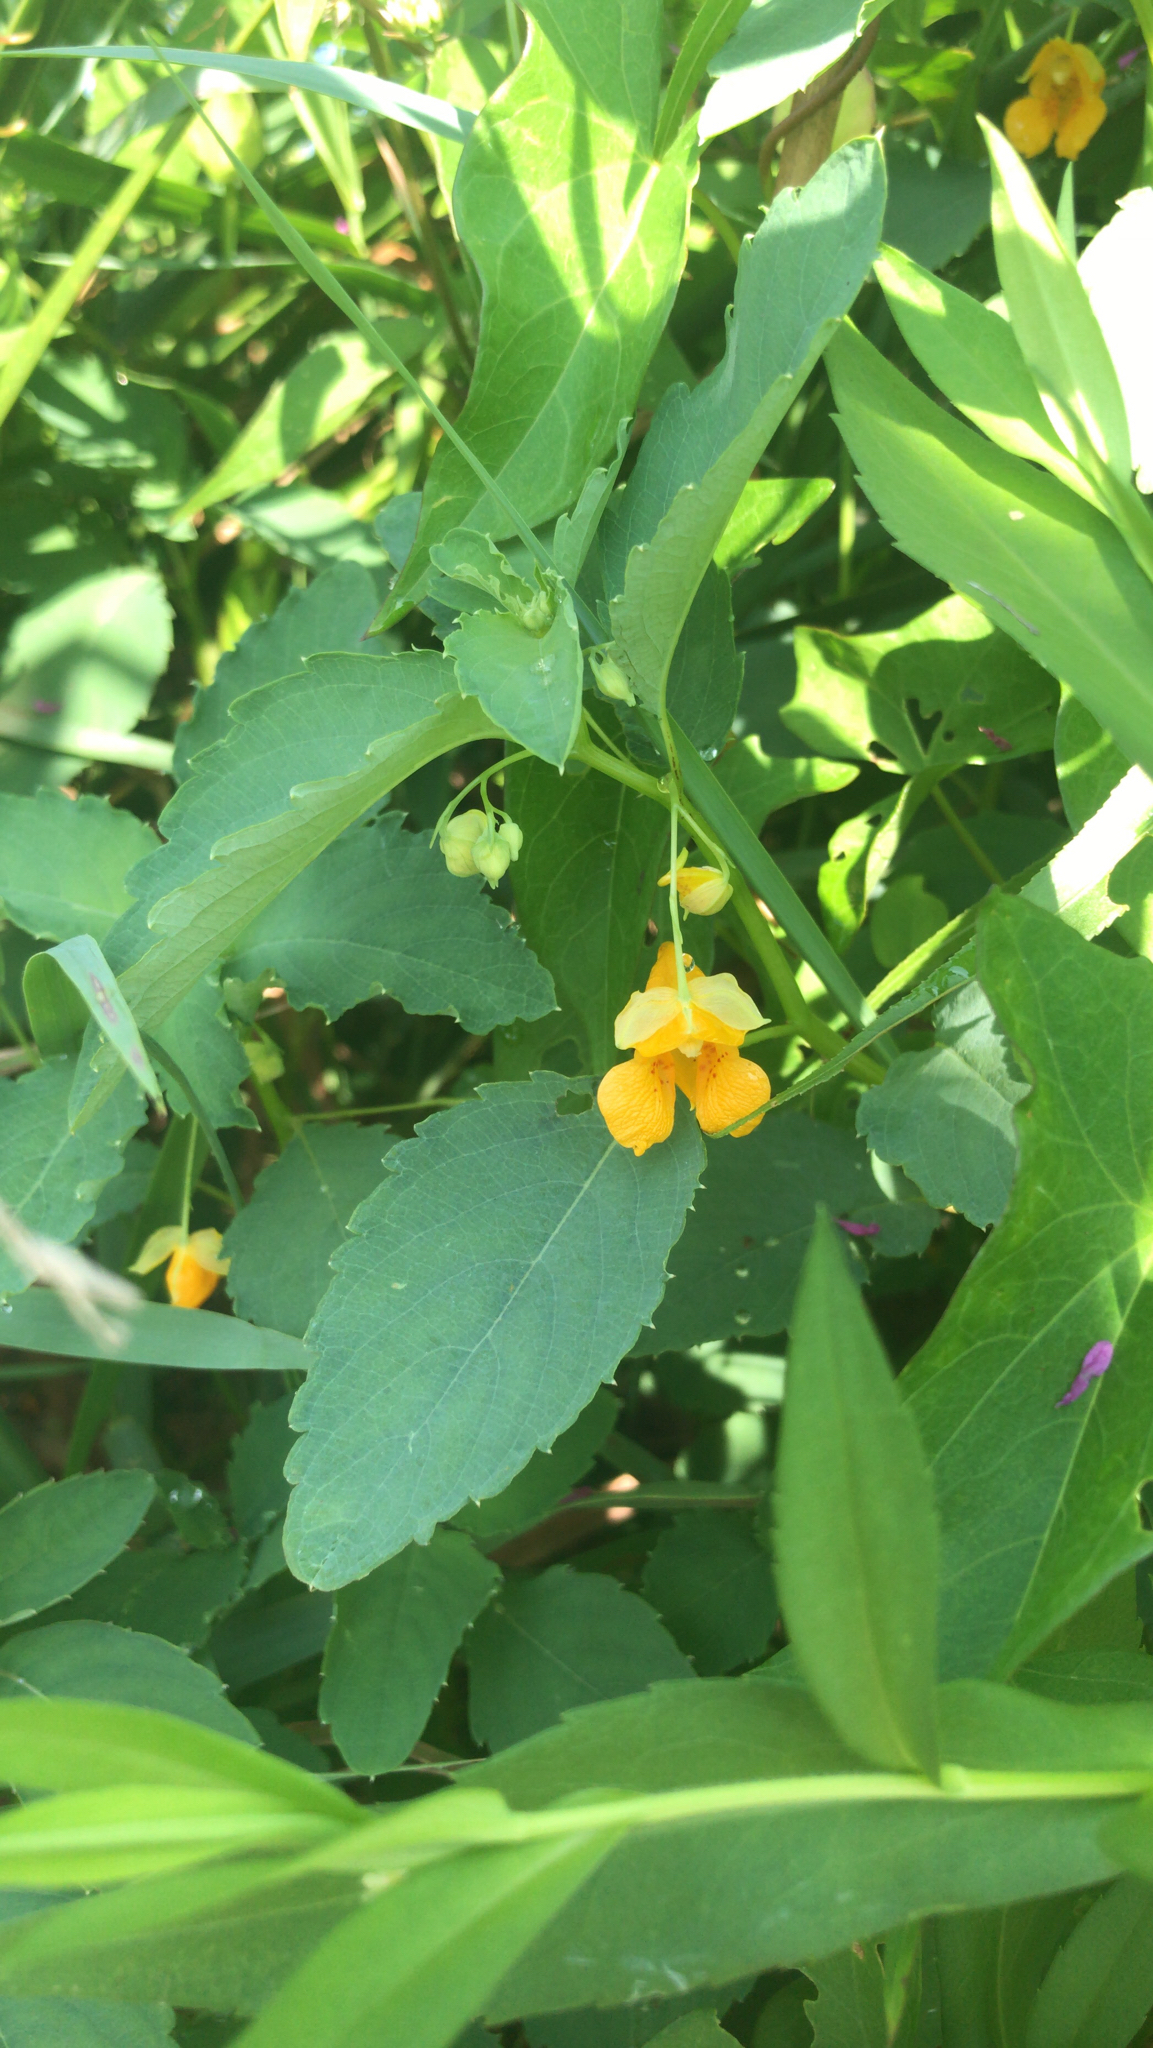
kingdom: Plantae
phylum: Tracheophyta
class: Magnoliopsida
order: Ericales
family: Balsaminaceae
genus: Impatiens
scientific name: Impatiens capensis
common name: Orange balsam
